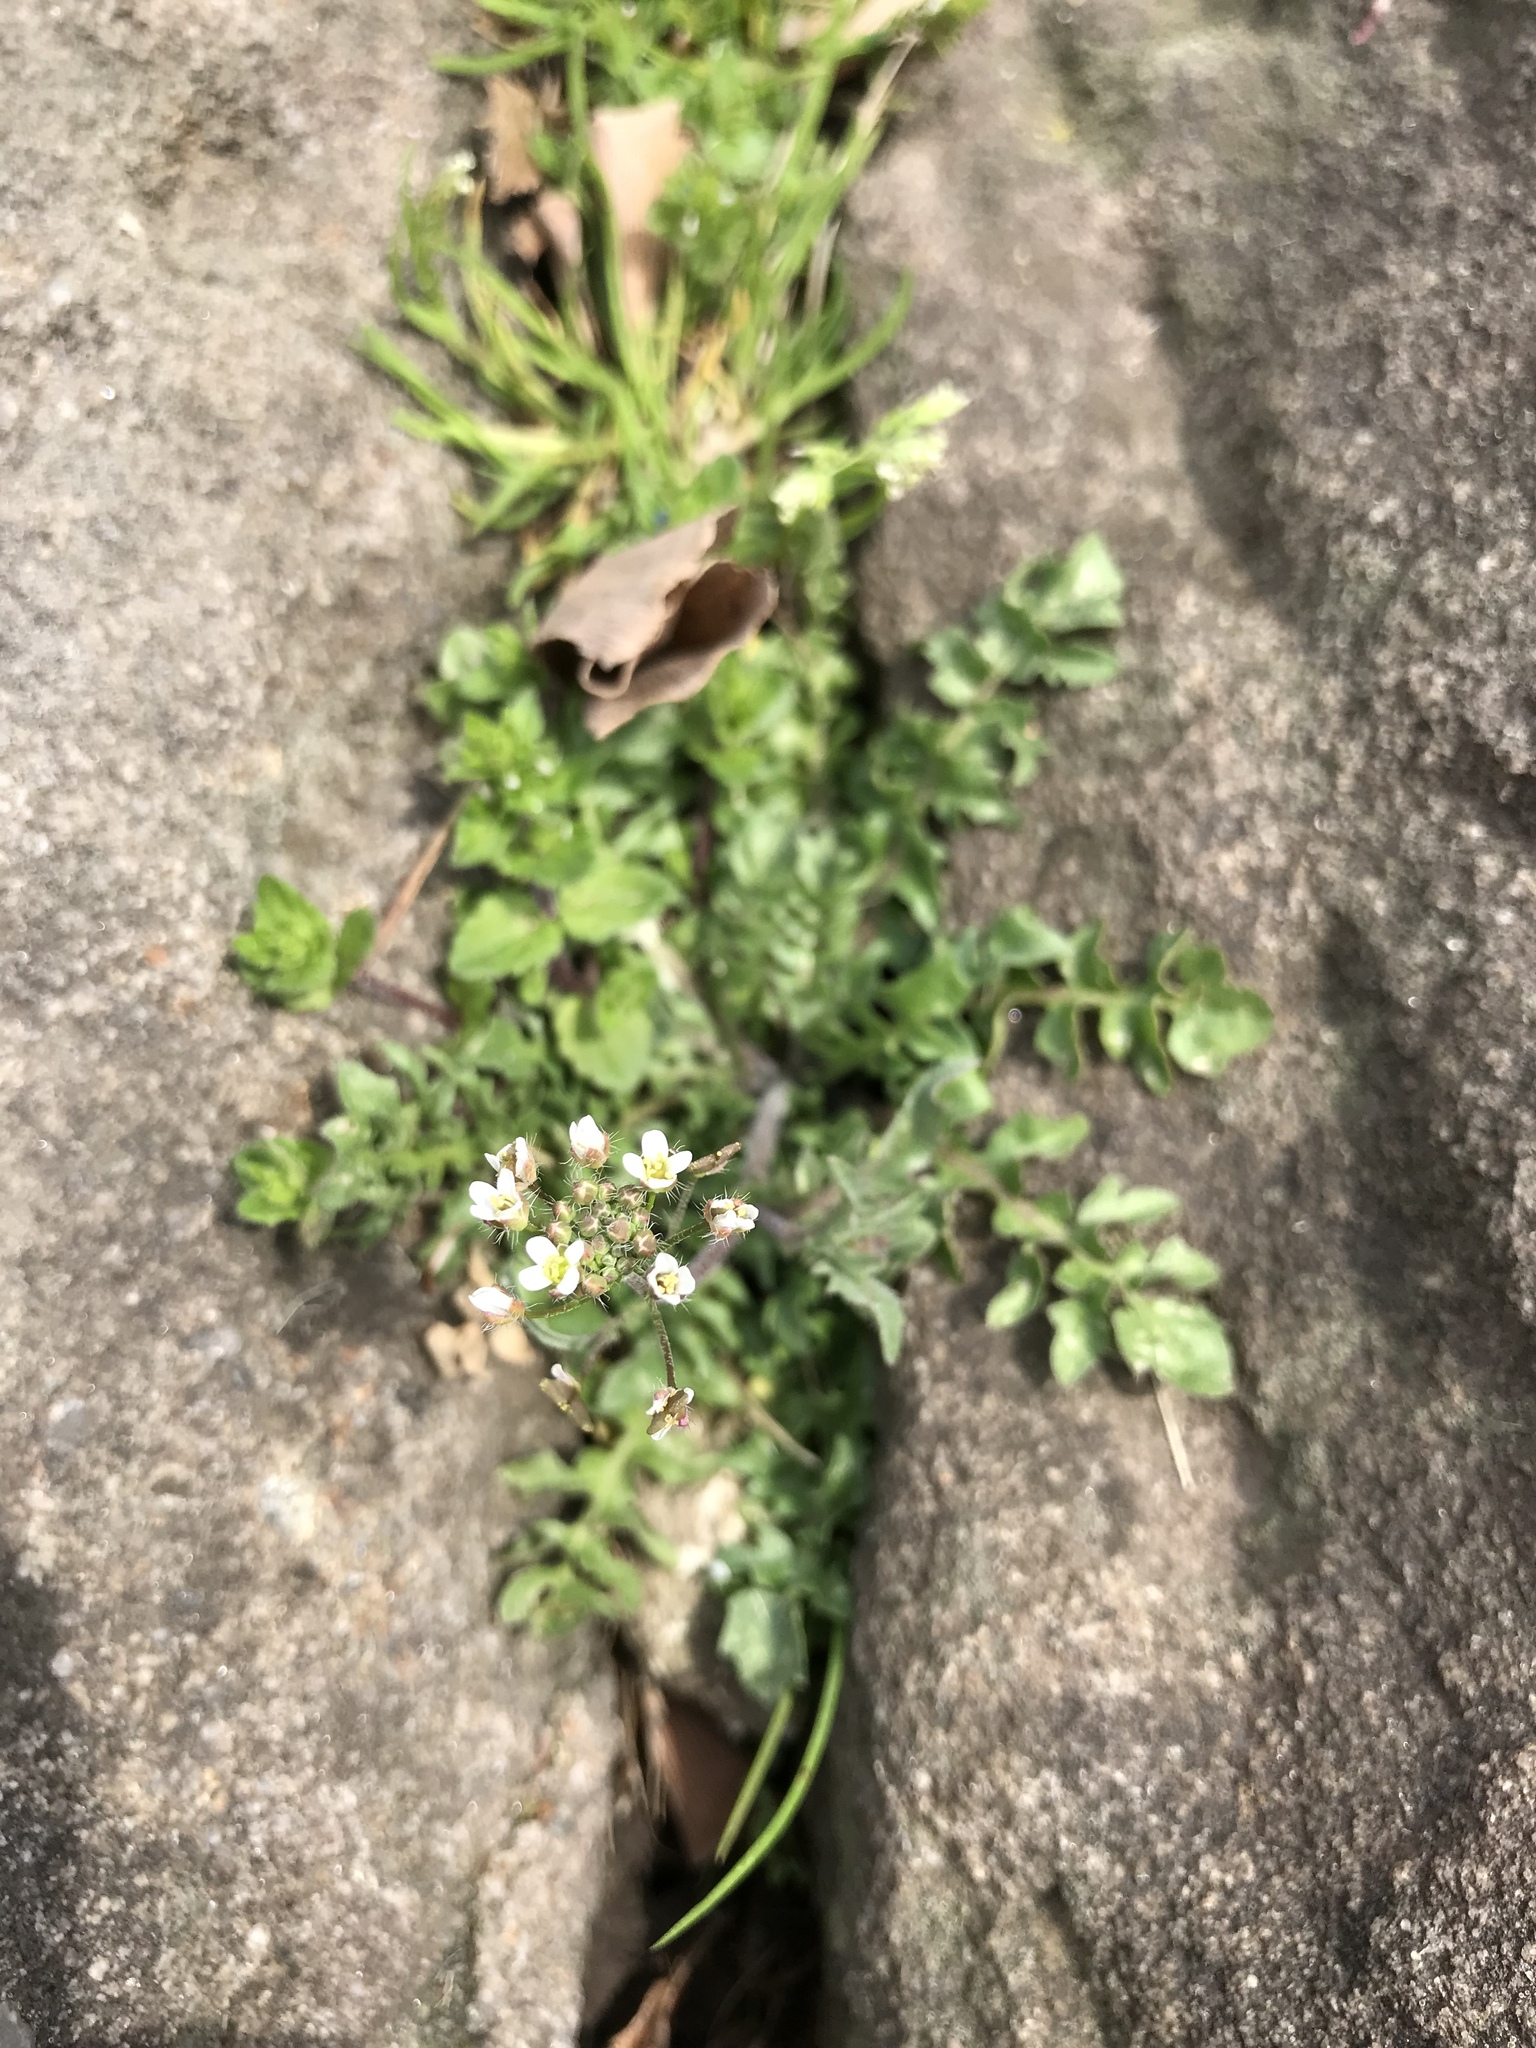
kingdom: Plantae
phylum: Tracheophyta
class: Magnoliopsida
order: Brassicales
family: Brassicaceae
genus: Capsella
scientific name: Capsella bursa-pastoris
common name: Shepherd's purse
